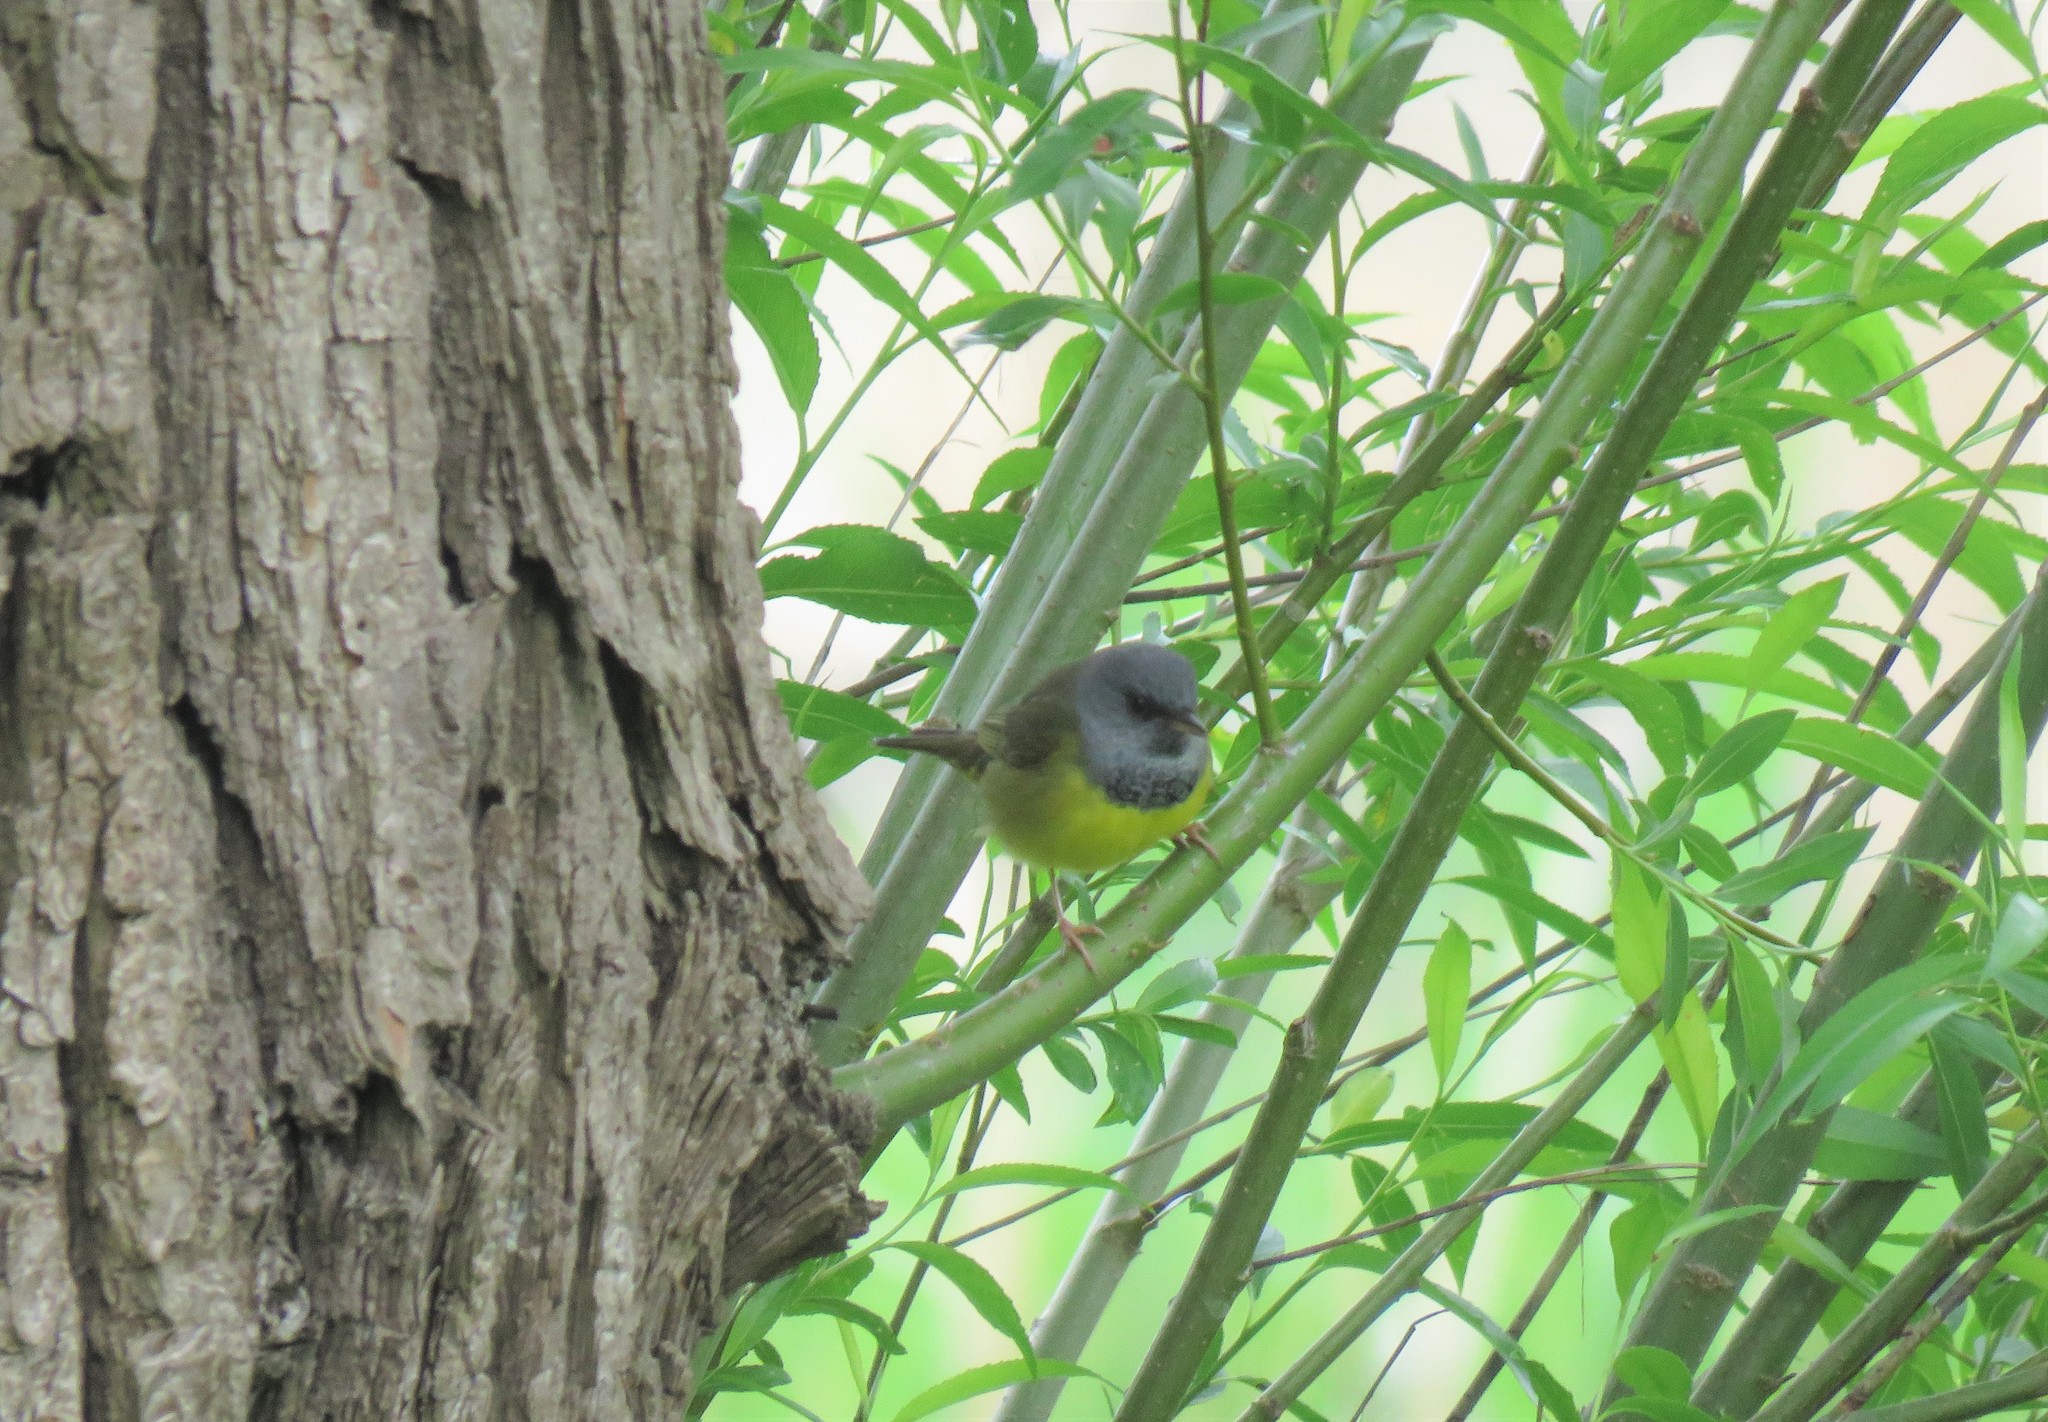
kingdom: Animalia
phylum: Chordata
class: Aves
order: Passeriformes
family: Parulidae
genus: Geothlypis
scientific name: Geothlypis philadelphia
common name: Mourning warbler
